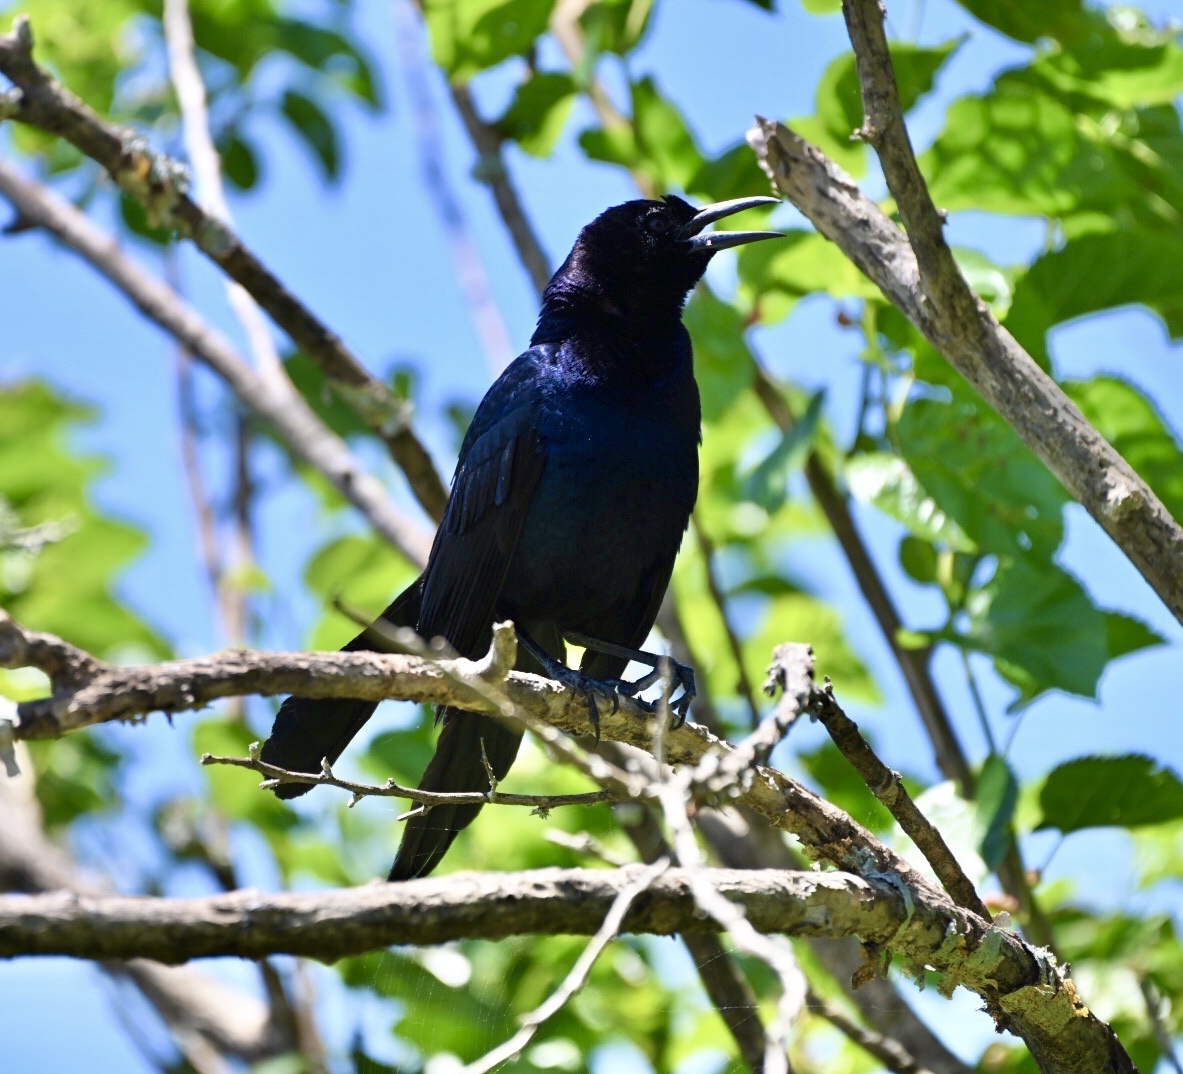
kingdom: Animalia
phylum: Chordata
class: Aves
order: Passeriformes
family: Icteridae
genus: Quiscalus
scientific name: Quiscalus major
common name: Boat-tailed grackle
